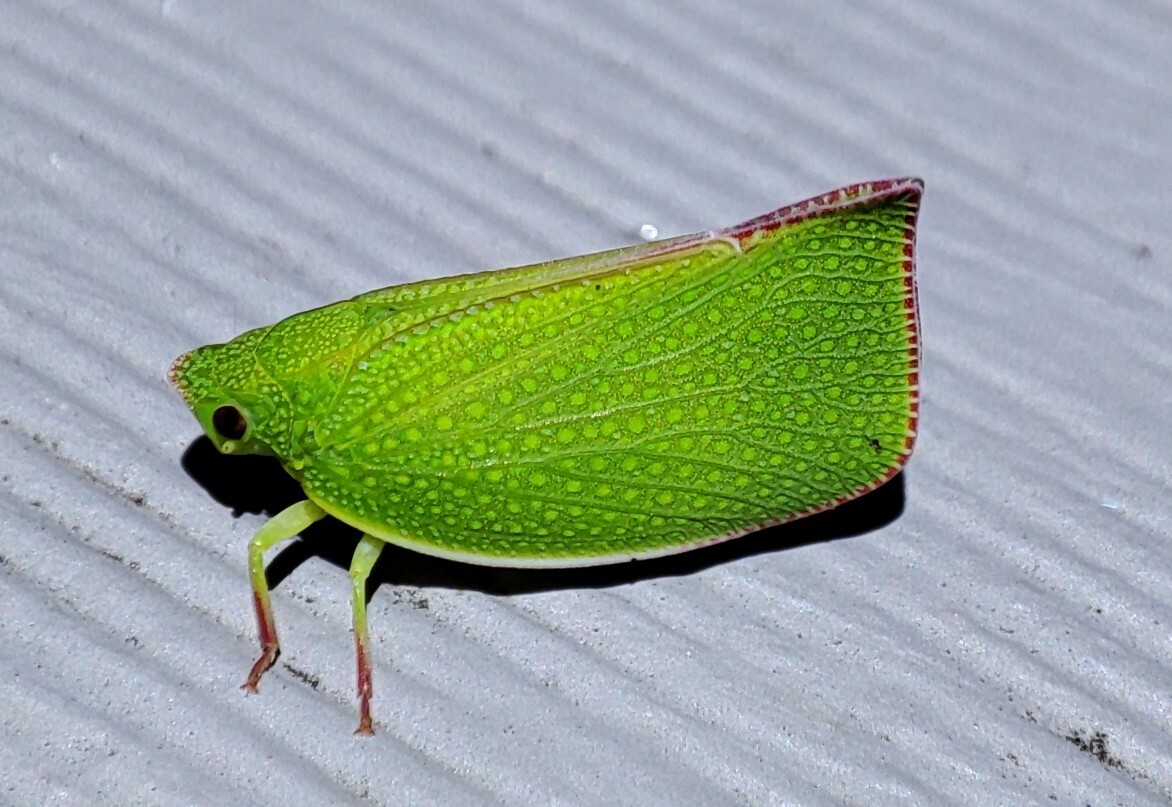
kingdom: Animalia
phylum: Arthropoda
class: Insecta
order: Hemiptera
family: Flatidae
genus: Siphanta
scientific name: Siphanta acuta
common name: Torpedo bug
